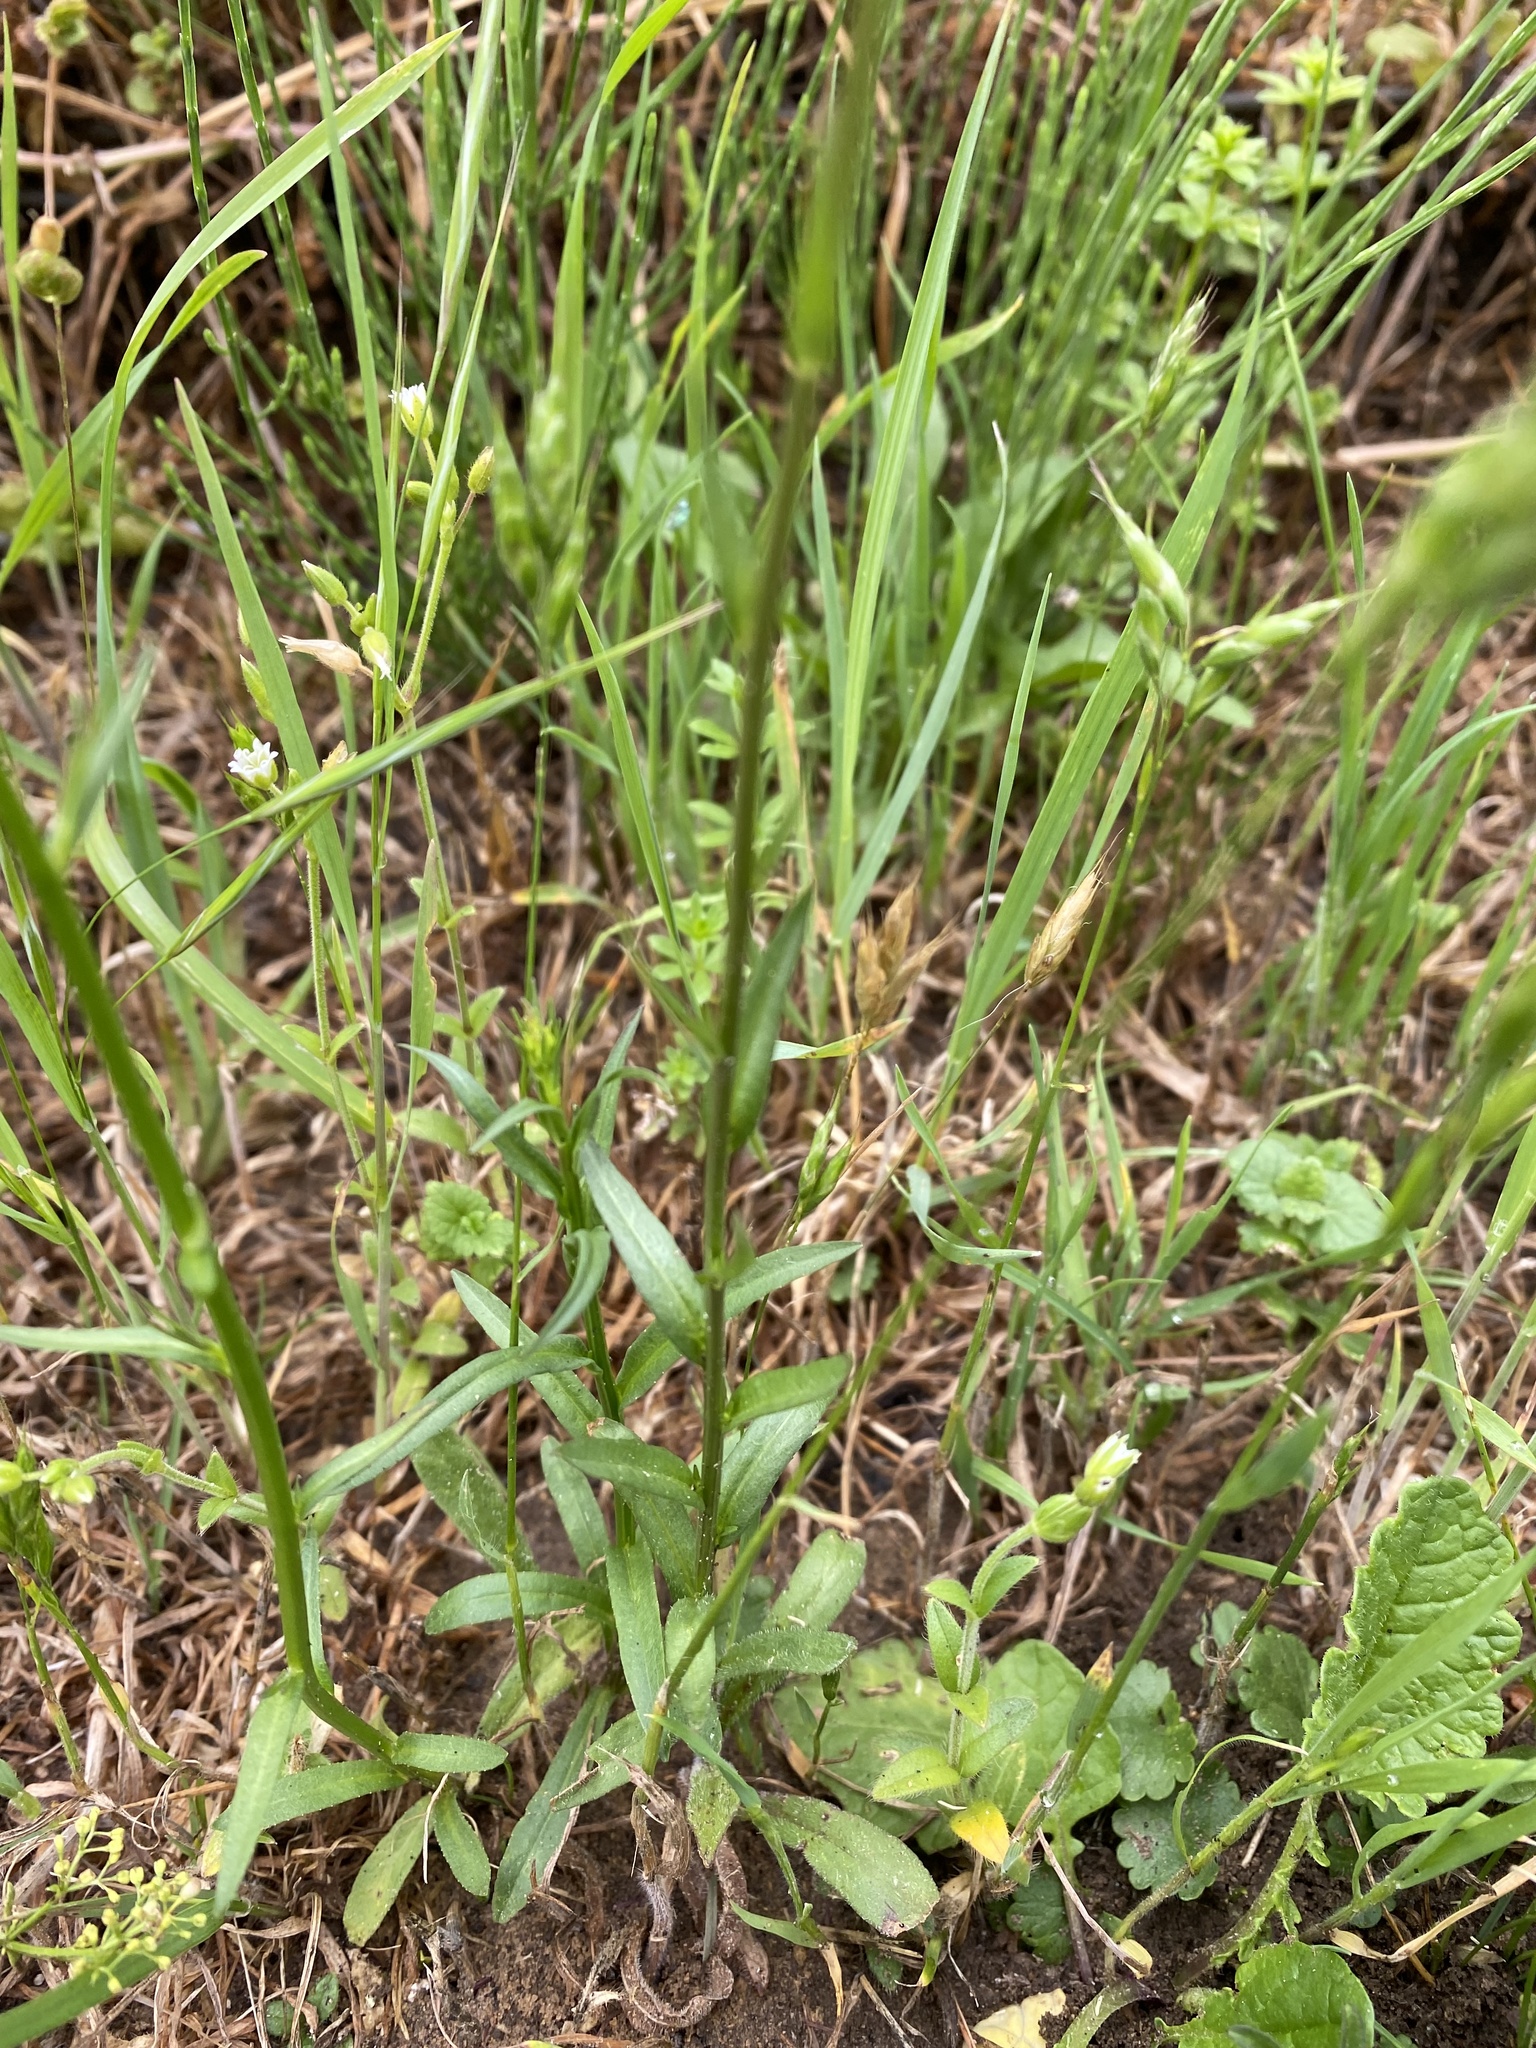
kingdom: Plantae
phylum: Tracheophyta
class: Magnoliopsida
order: Asterales
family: Campanulaceae
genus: Campanula
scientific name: Campanula rapunculus
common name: Rampion bellflower
